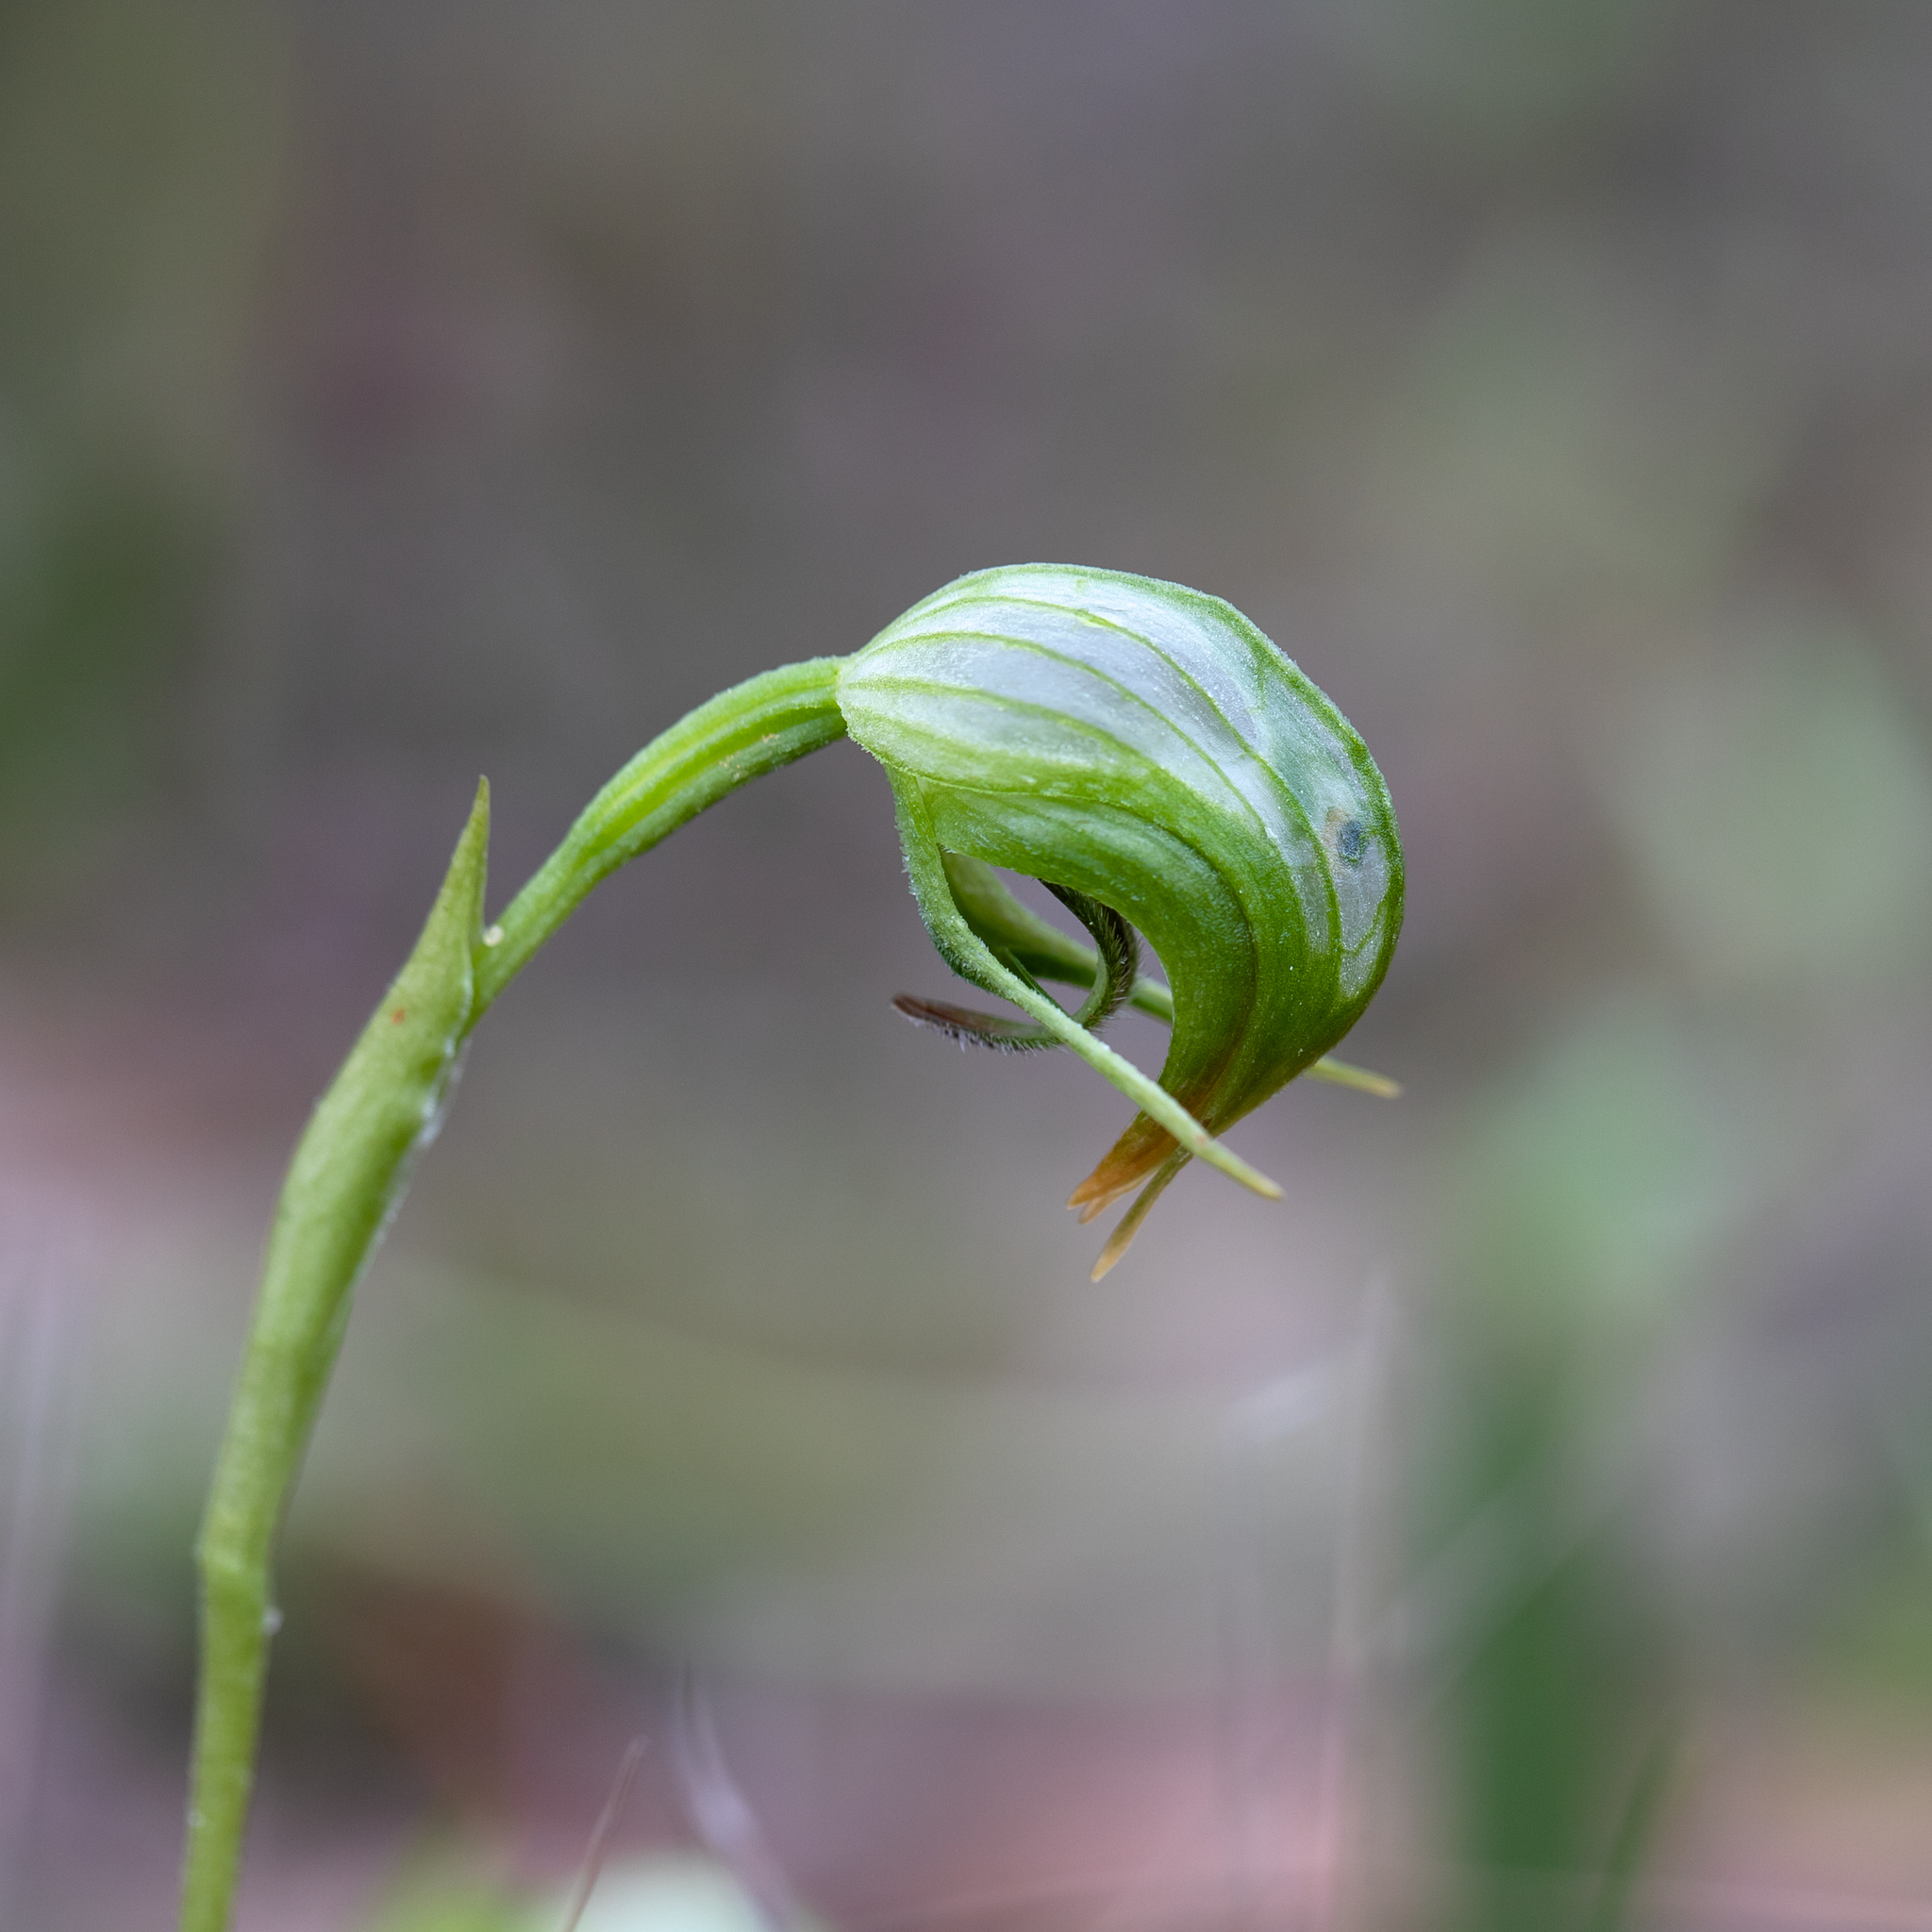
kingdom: Plantae
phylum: Tracheophyta
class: Liliopsida
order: Asparagales
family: Orchidaceae
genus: Pterostylis
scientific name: Pterostylis nutans
